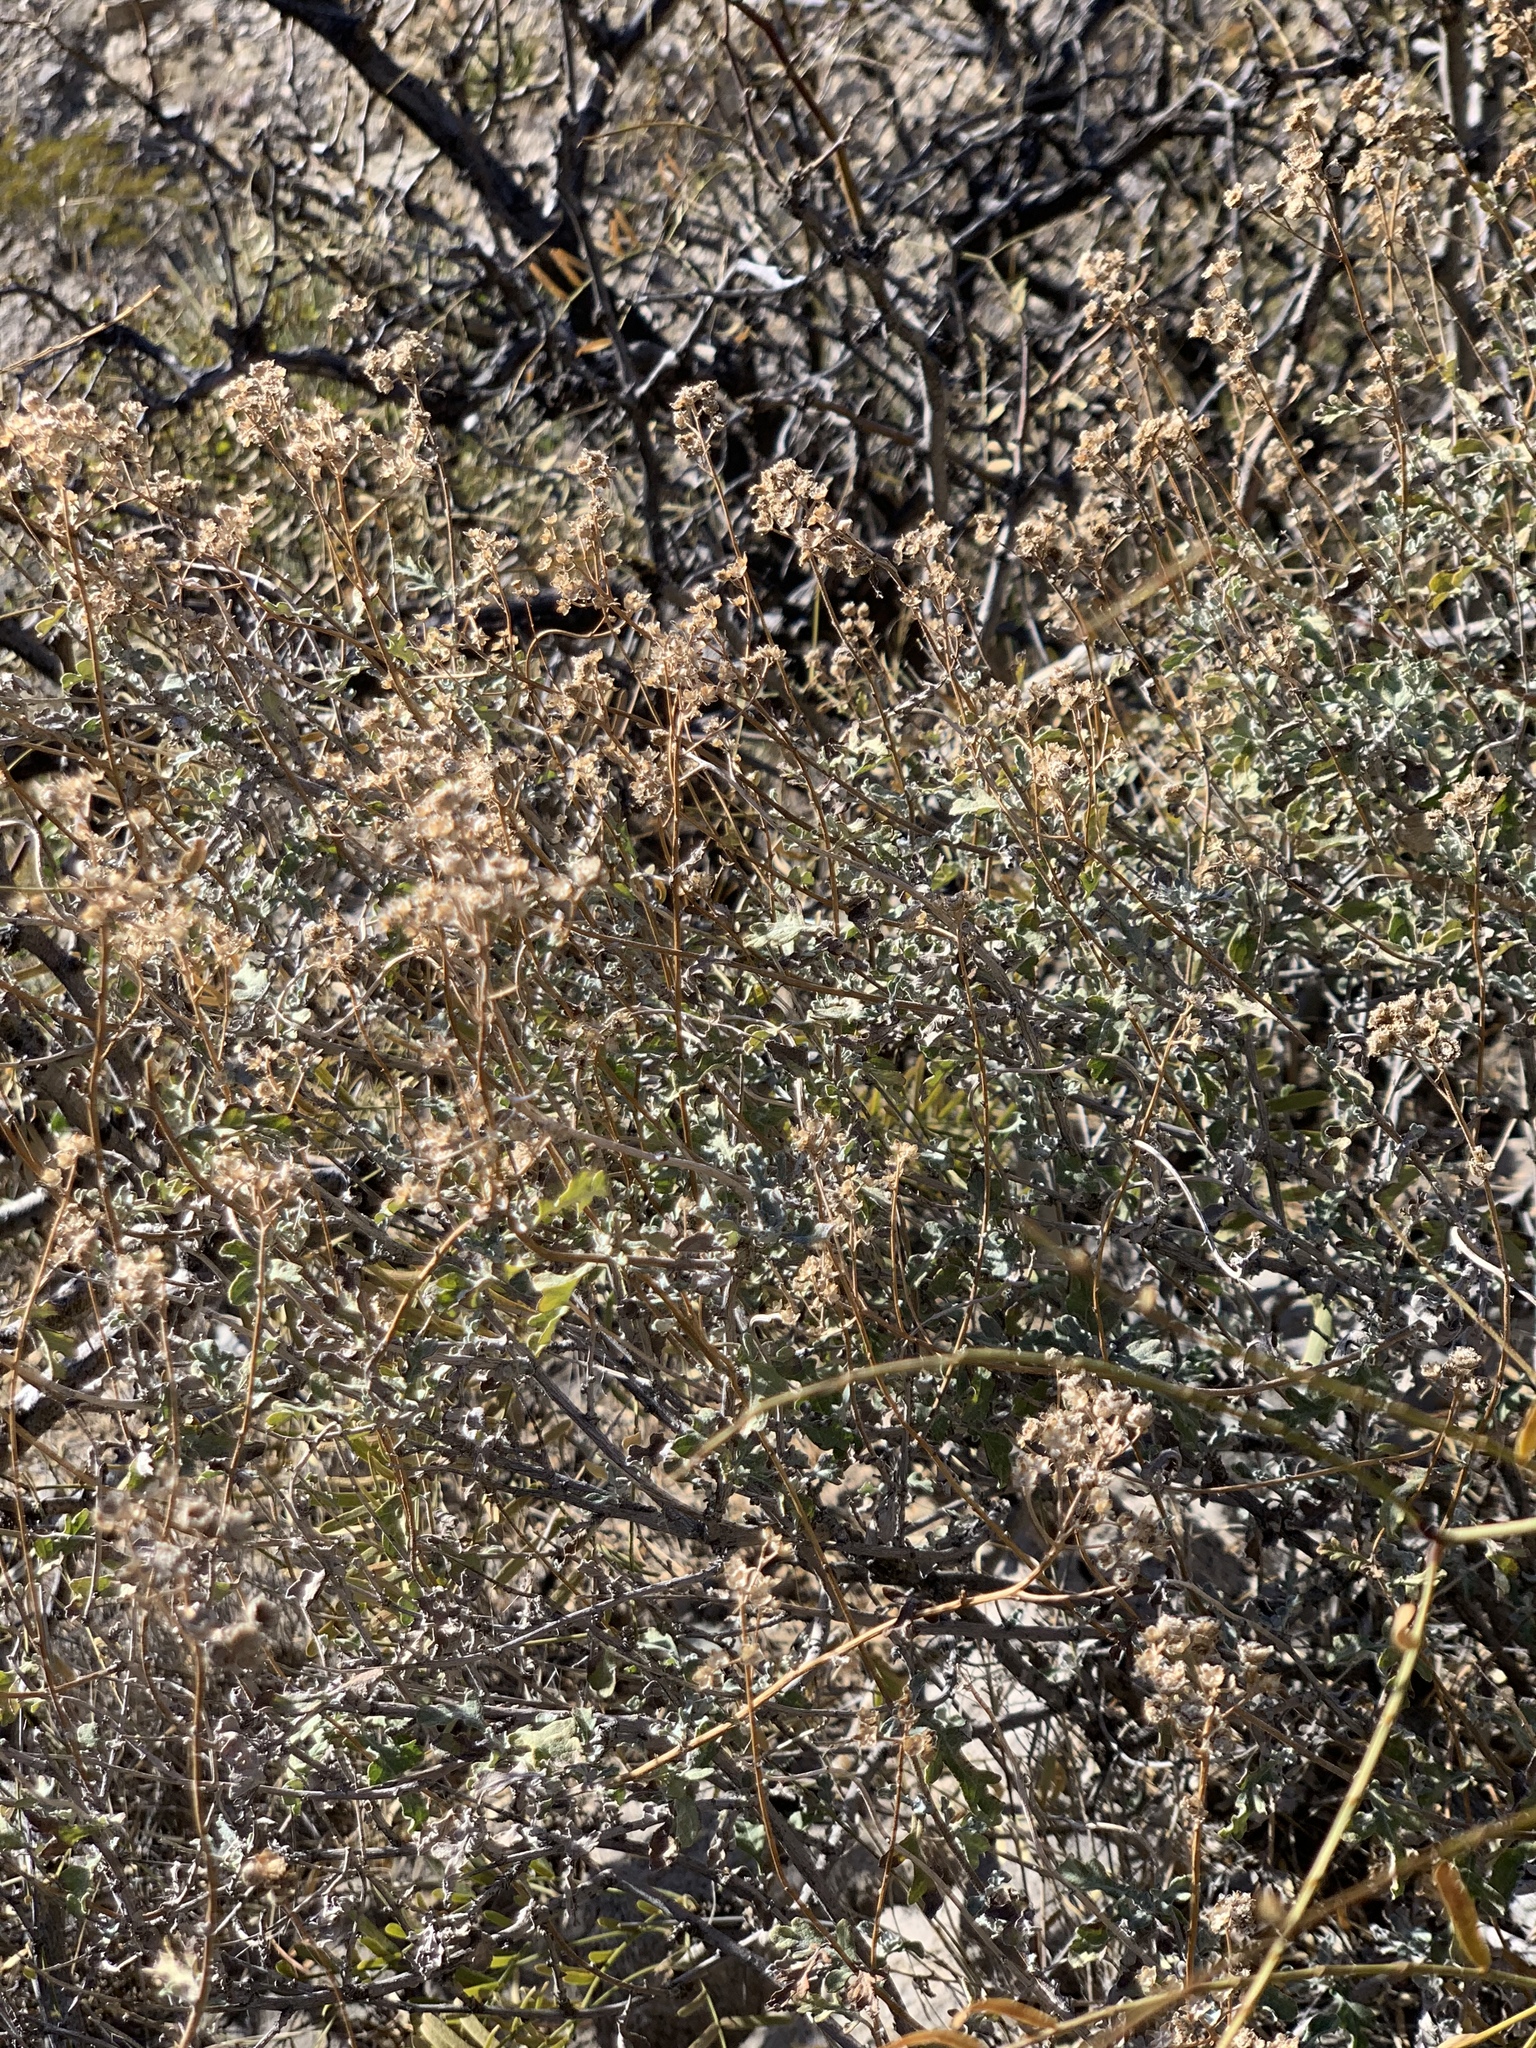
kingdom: Plantae
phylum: Tracheophyta
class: Magnoliopsida
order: Asterales
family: Asteraceae
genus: Parthenium
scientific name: Parthenium incanum
